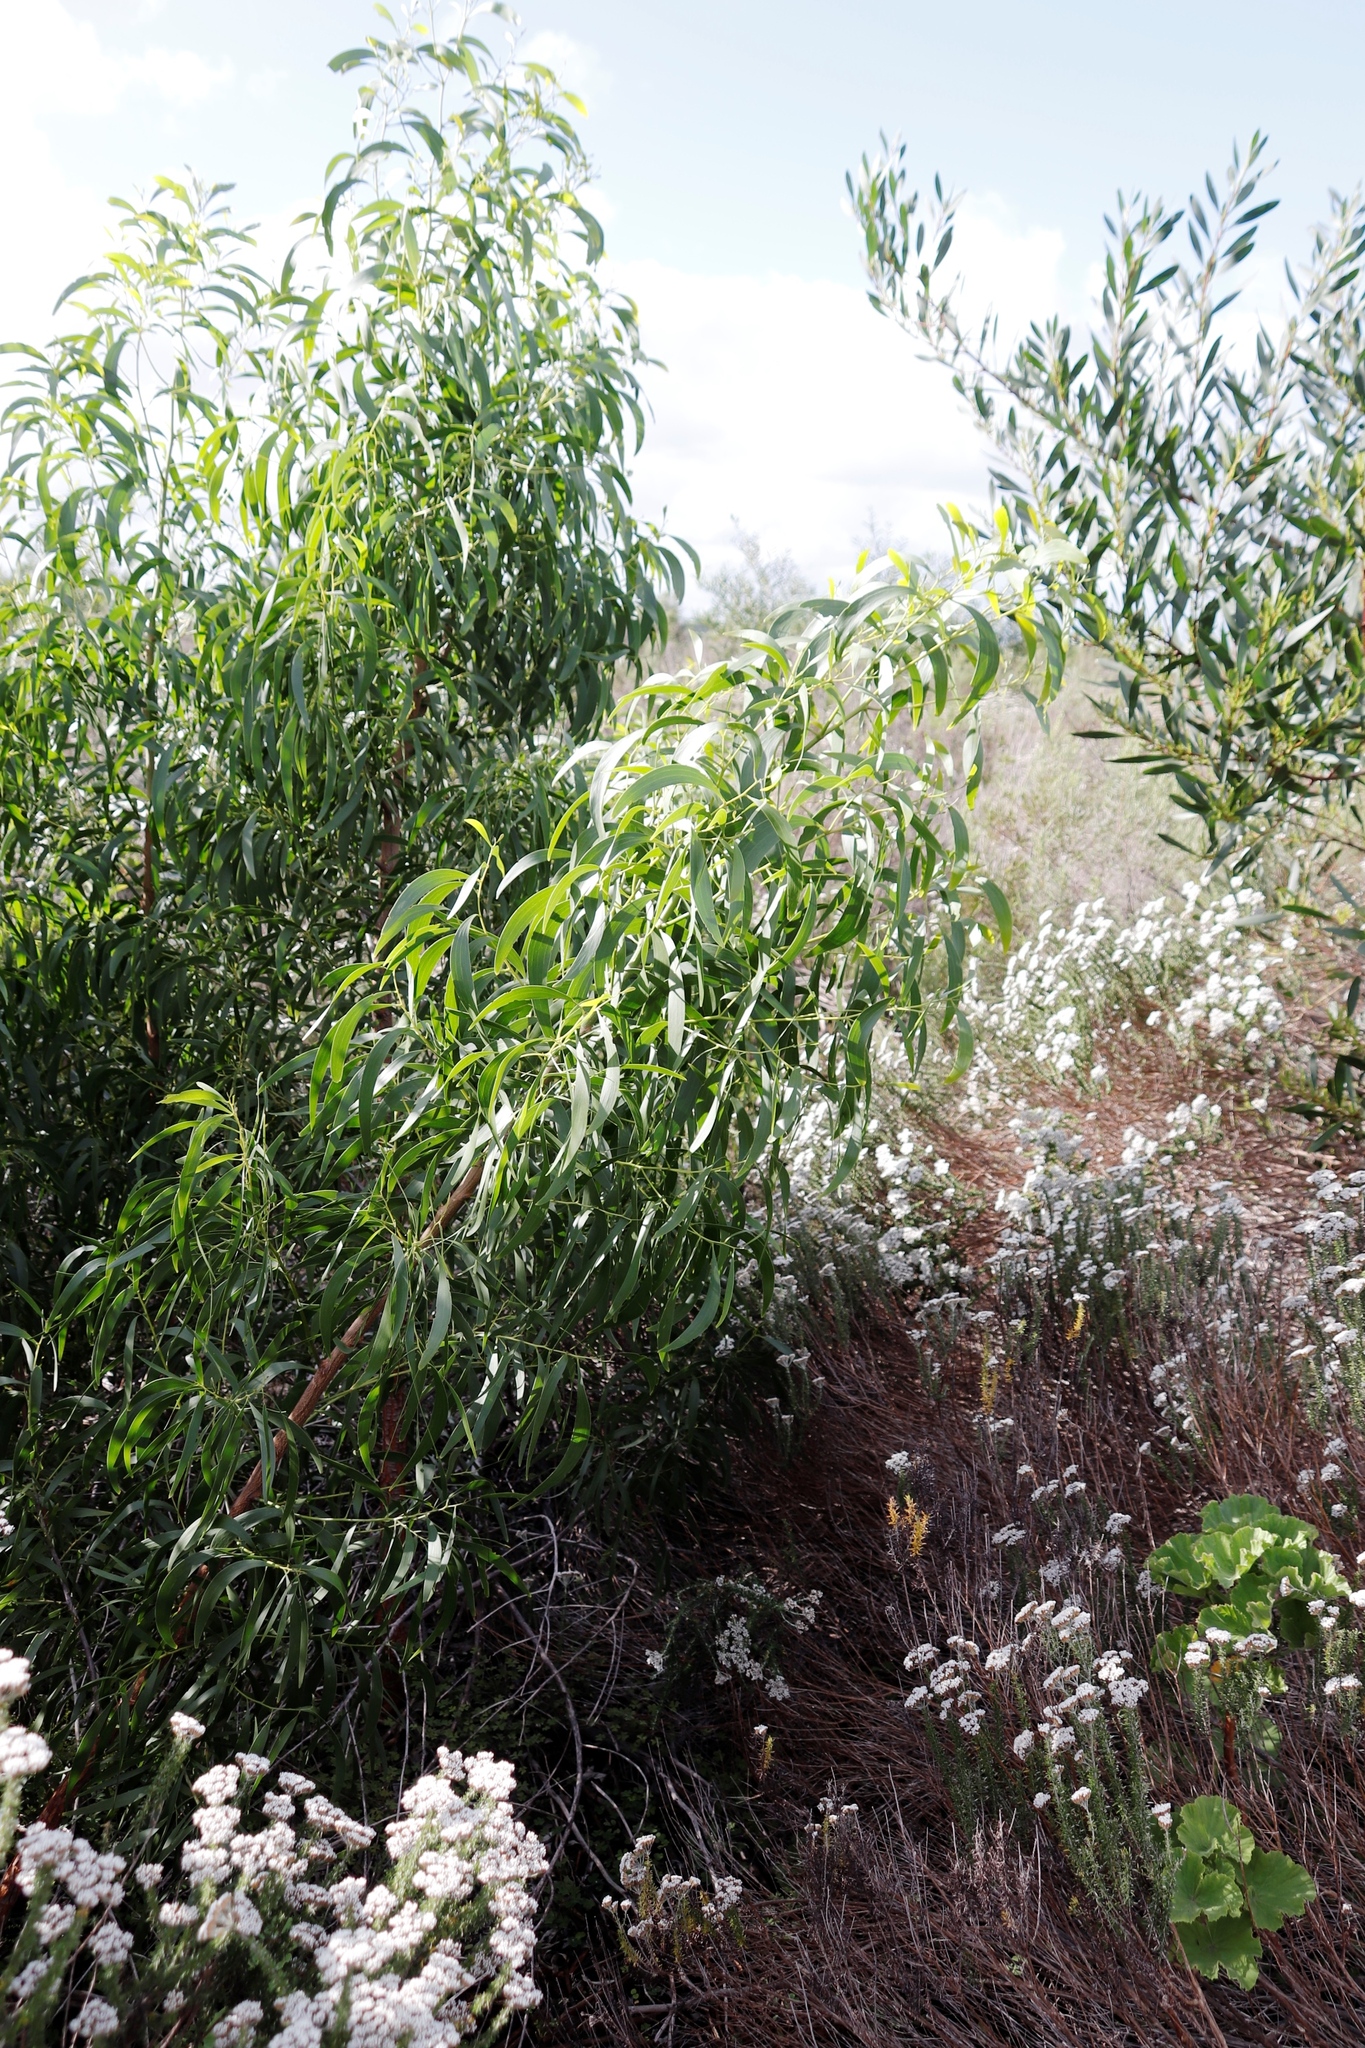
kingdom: Plantae
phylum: Tracheophyta
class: Magnoliopsida
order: Fabales
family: Fabaceae
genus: Acacia
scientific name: Acacia implexa
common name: Black wattle
